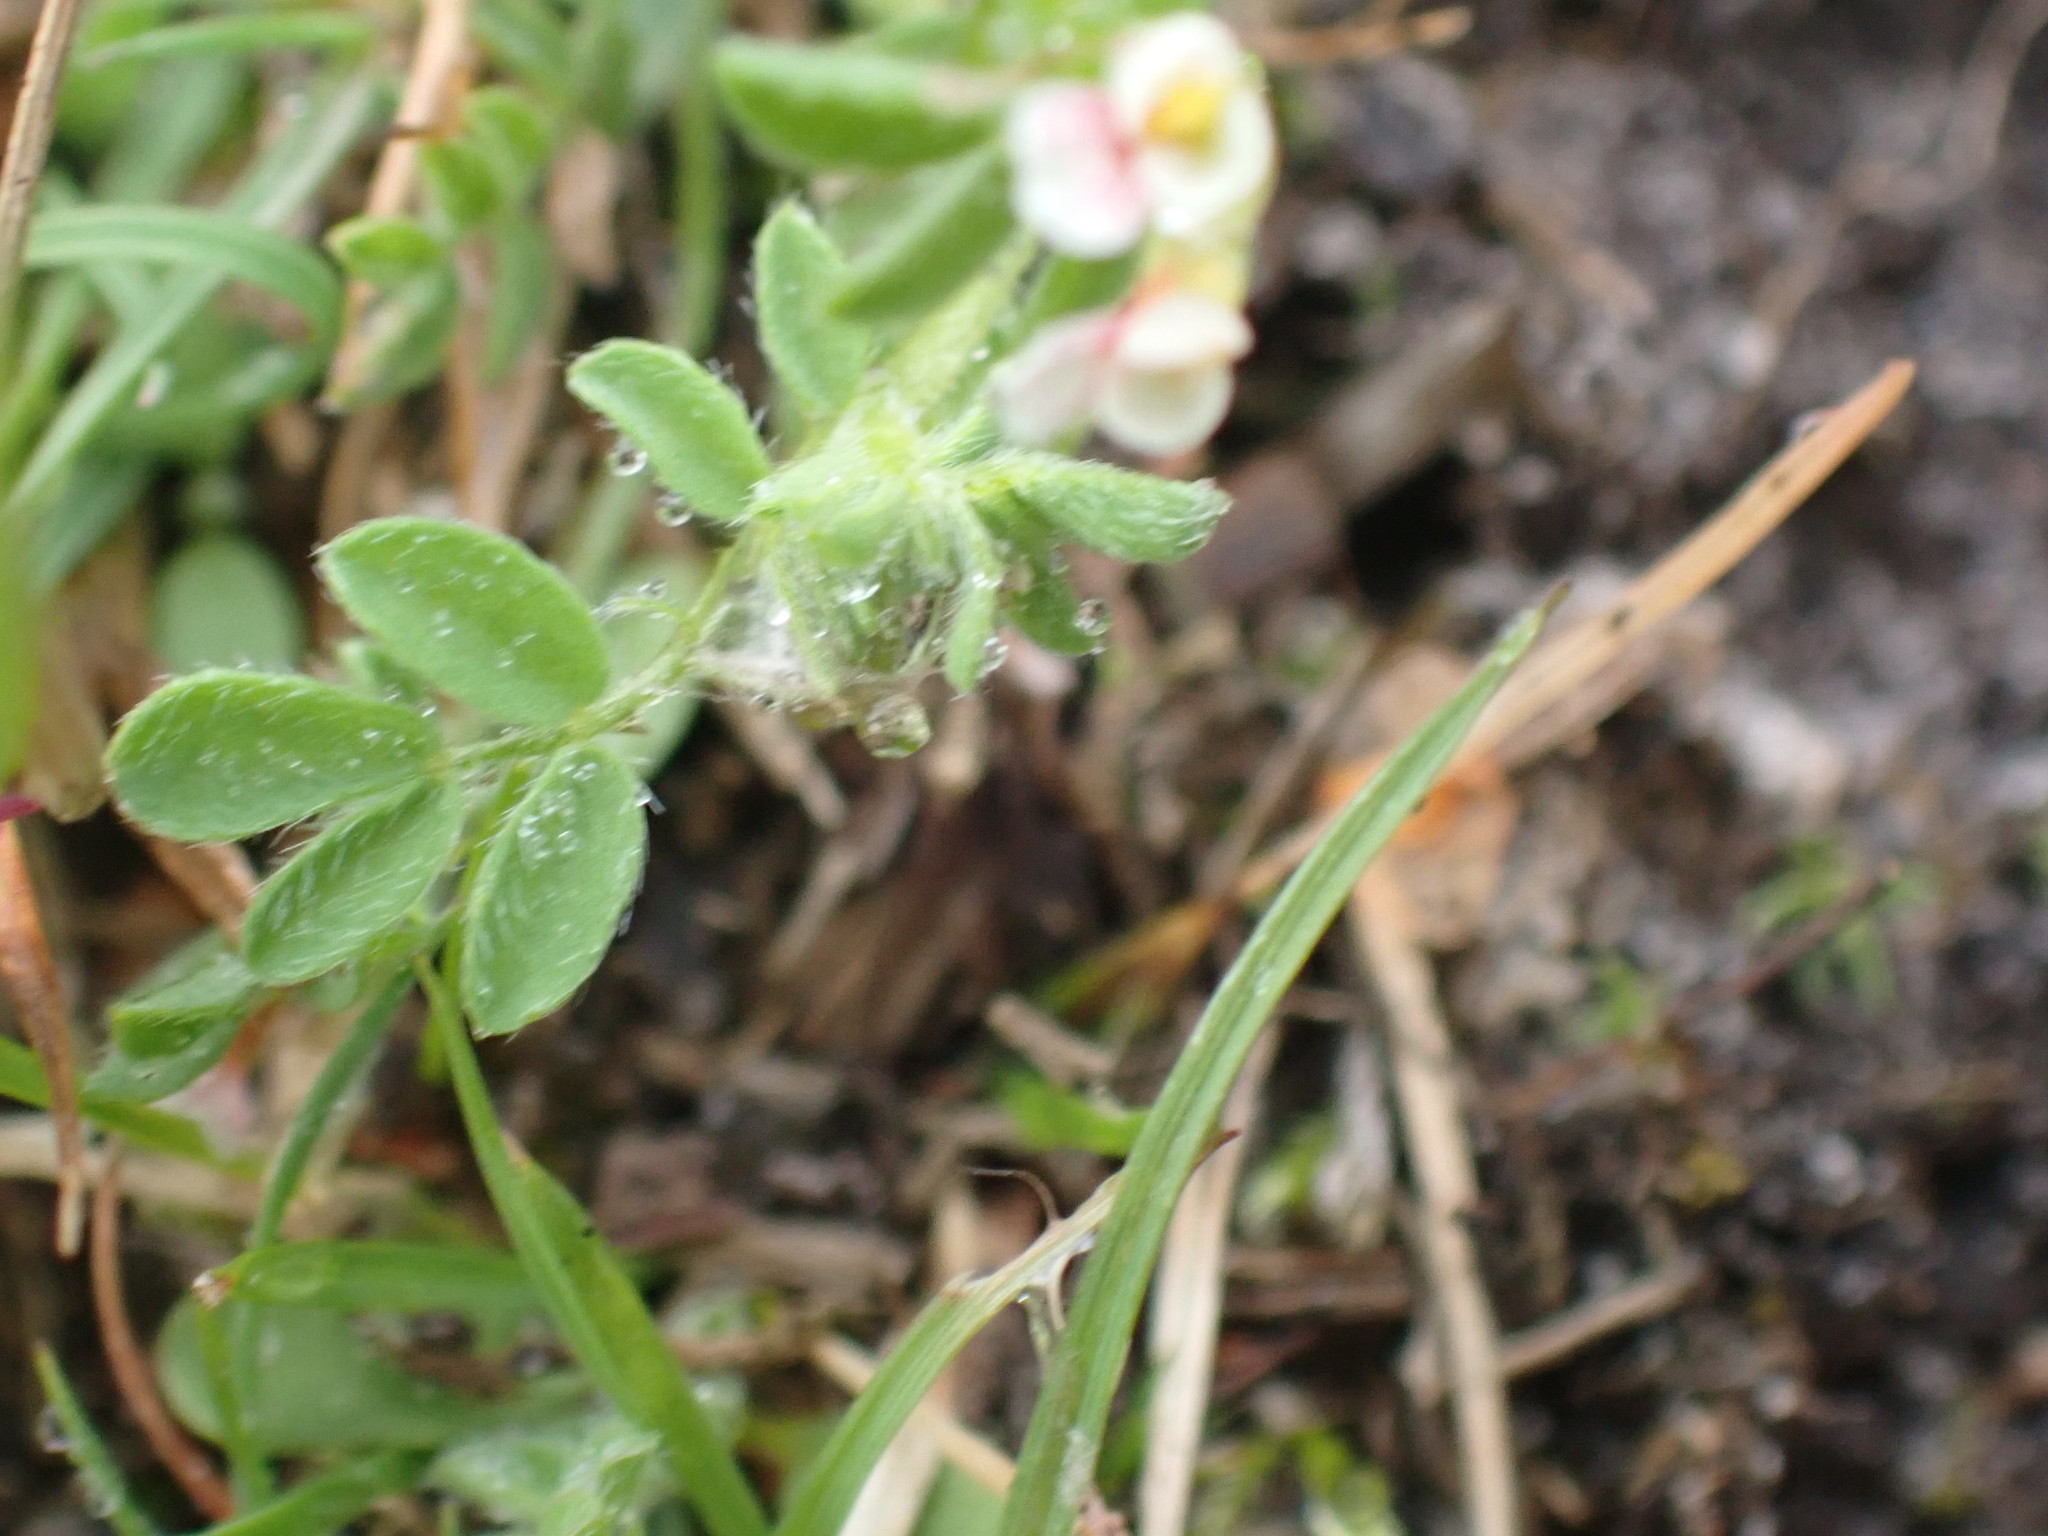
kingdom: Plantae
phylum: Tracheophyta
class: Magnoliopsida
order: Fabales
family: Fabaceae
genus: Ornithopus
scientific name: Ornithopus perpusillus
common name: Bird's-foot
